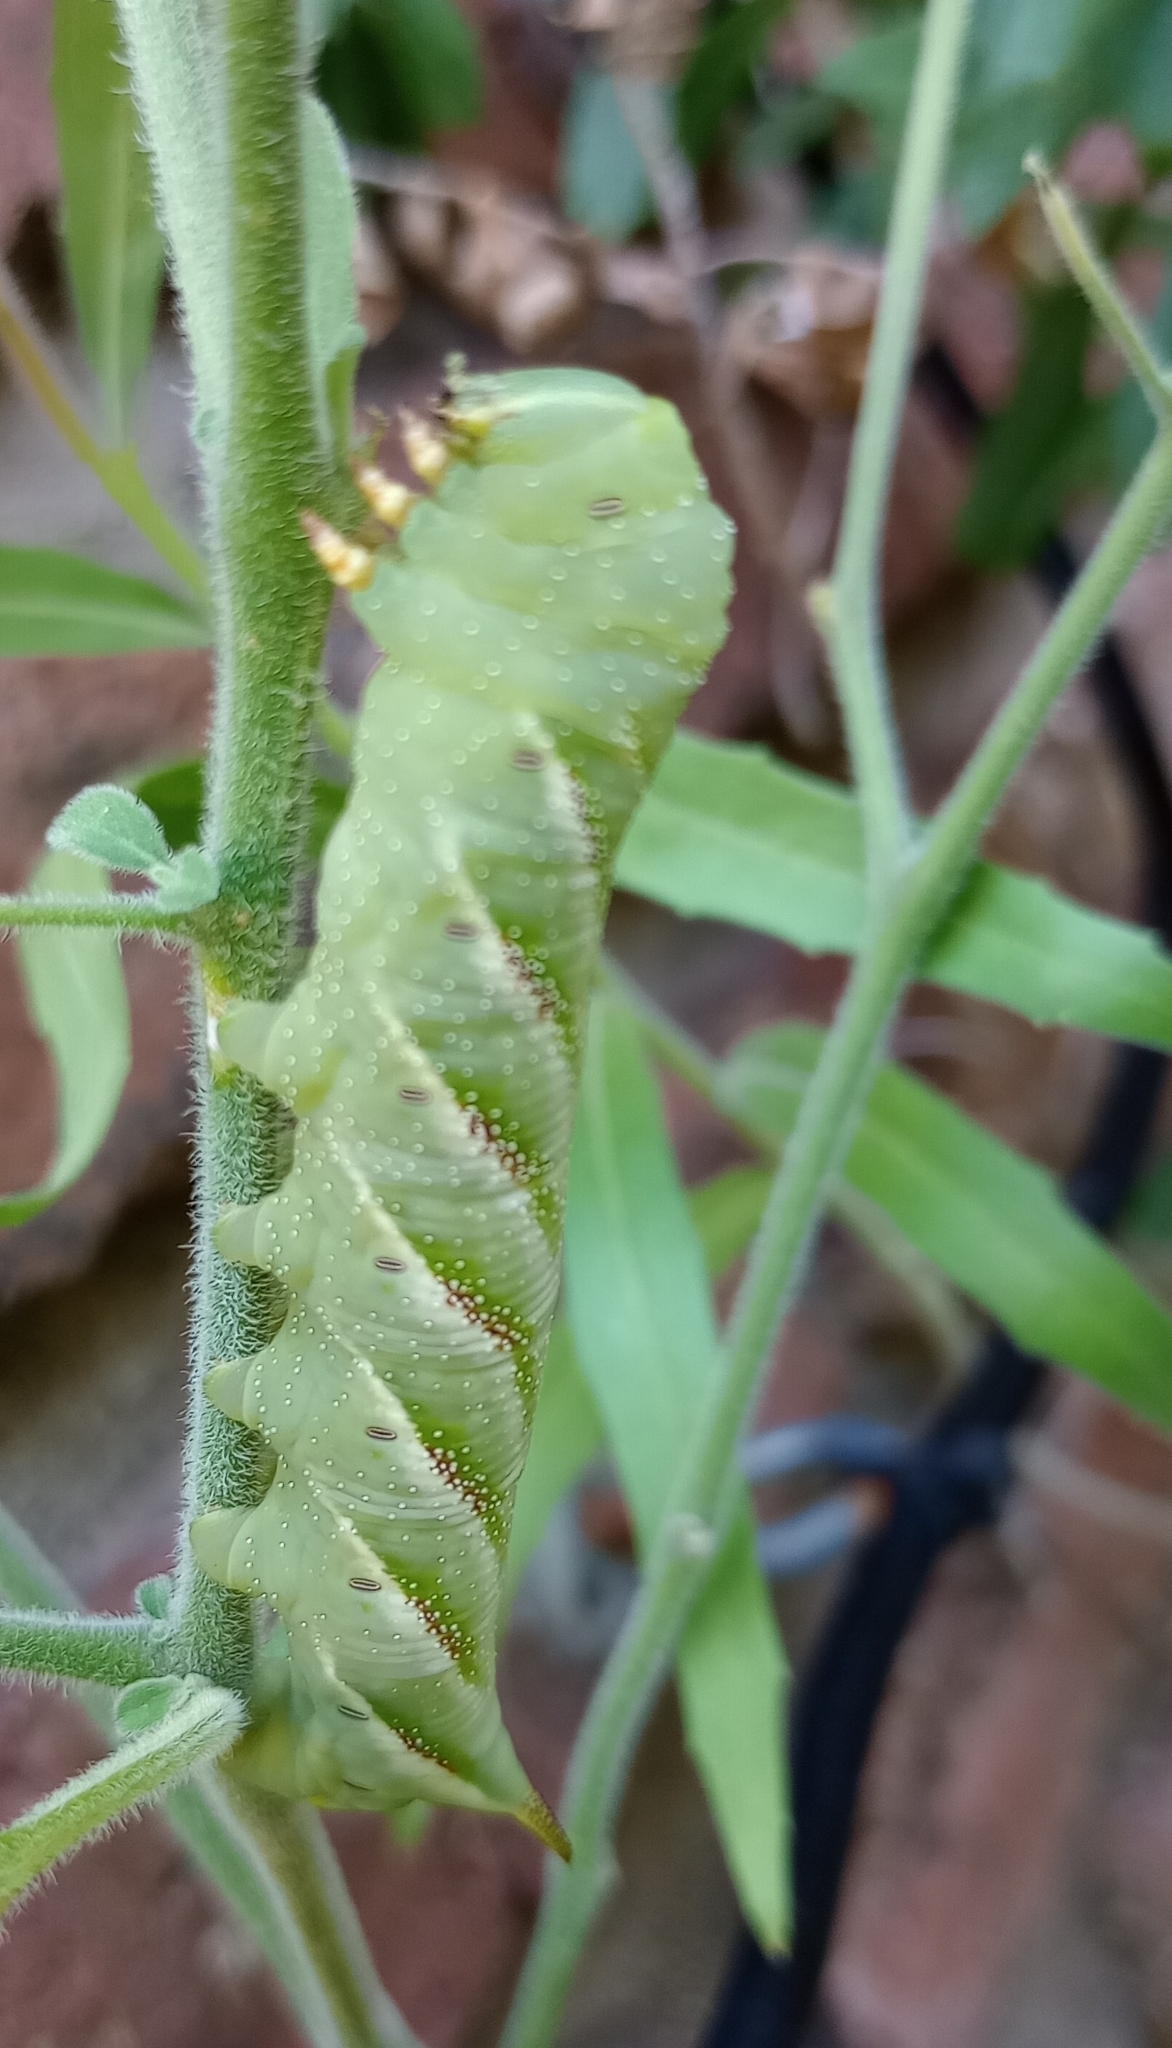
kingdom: Animalia
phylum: Arthropoda
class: Insecta
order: Lepidoptera
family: Sphingidae
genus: Manduca
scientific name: Manduca afflicta
